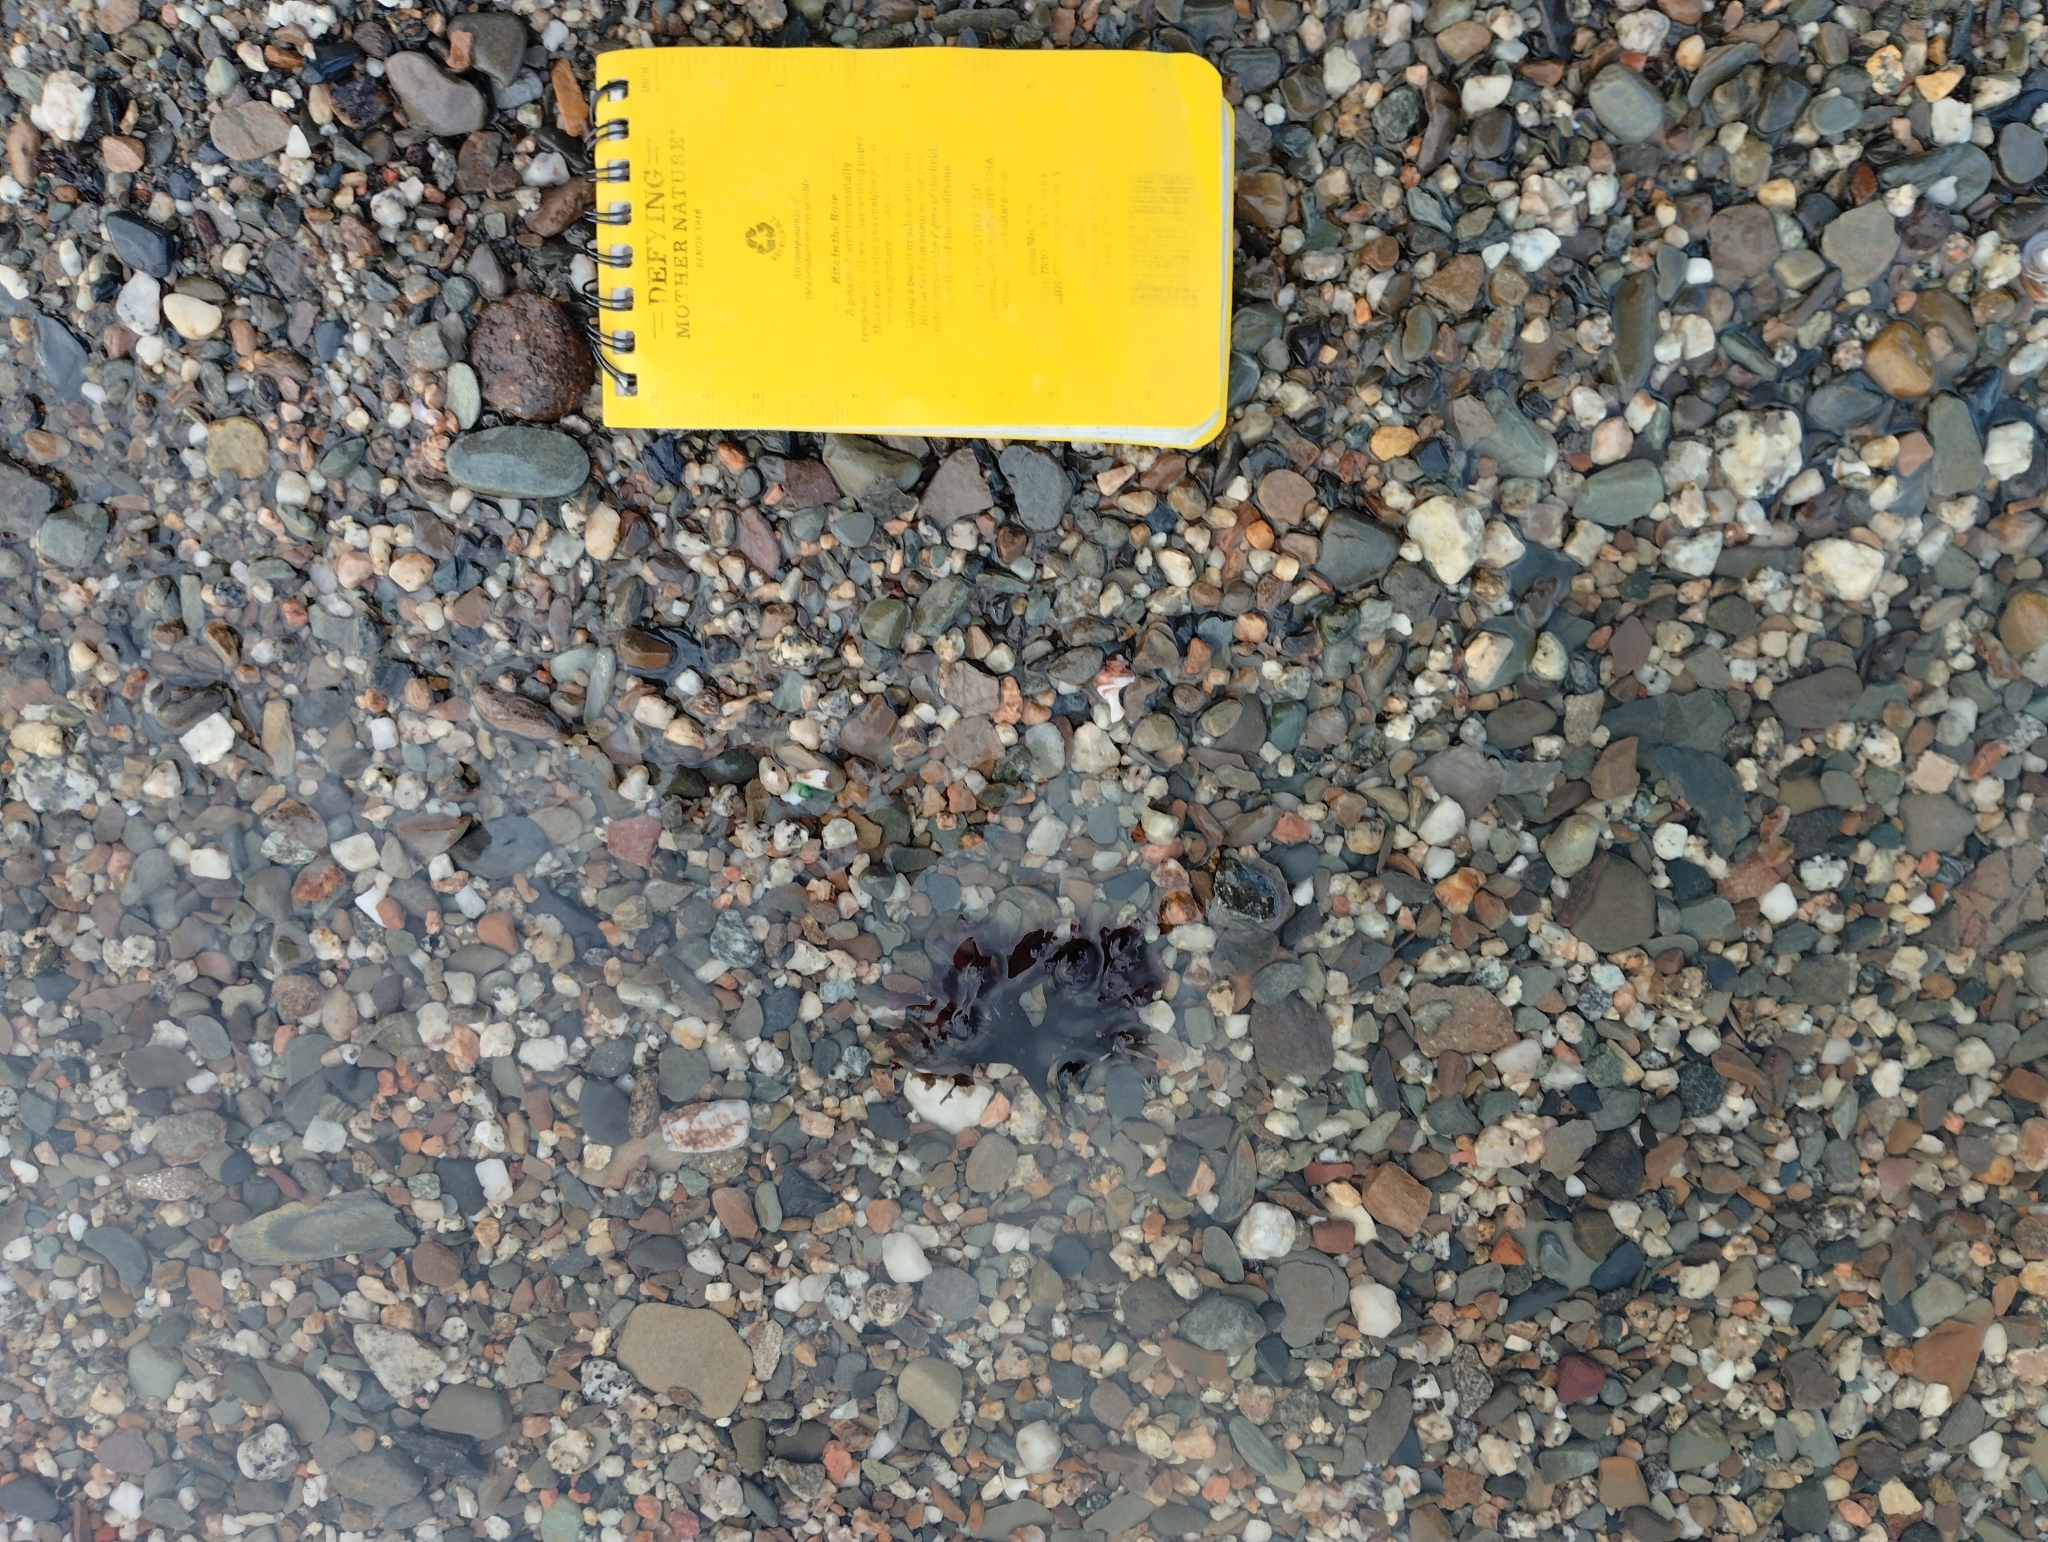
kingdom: Plantae
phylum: Rhodophyta
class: Florideophyceae
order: Gigartinales
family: Gigartinaceae
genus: Chondrus
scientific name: Chondrus crispus
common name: Carrageen
